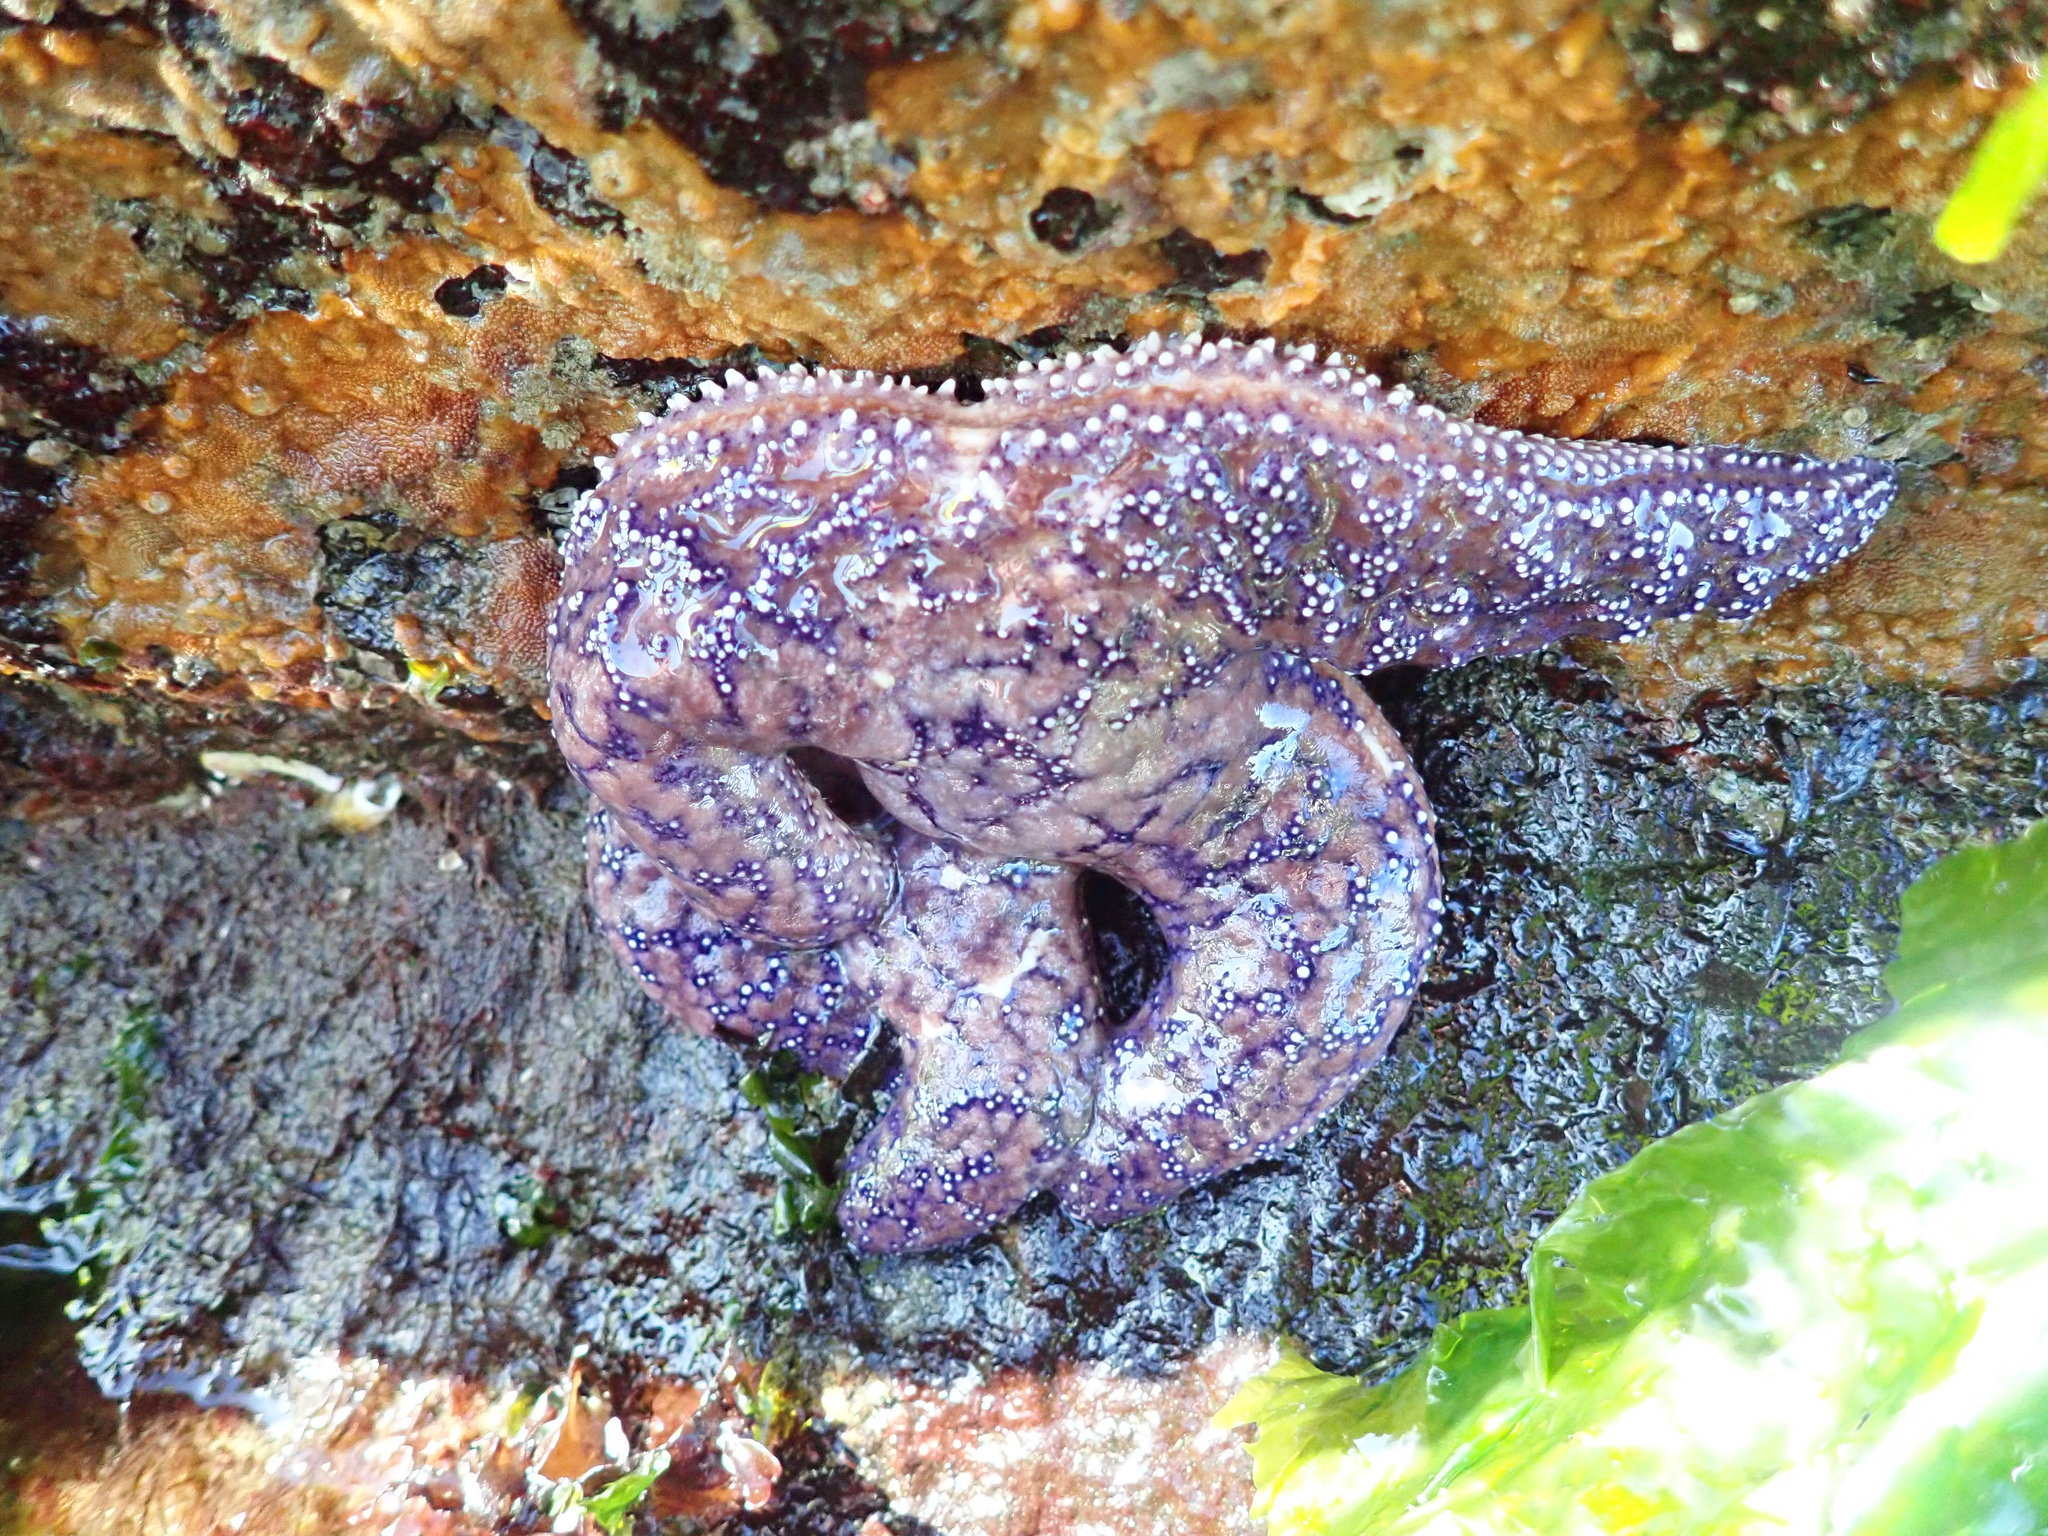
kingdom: Animalia
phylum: Echinodermata
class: Asteroidea
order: Forcipulatida
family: Asteriidae
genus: Pisaster
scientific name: Pisaster ochraceus
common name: Ochre stars
